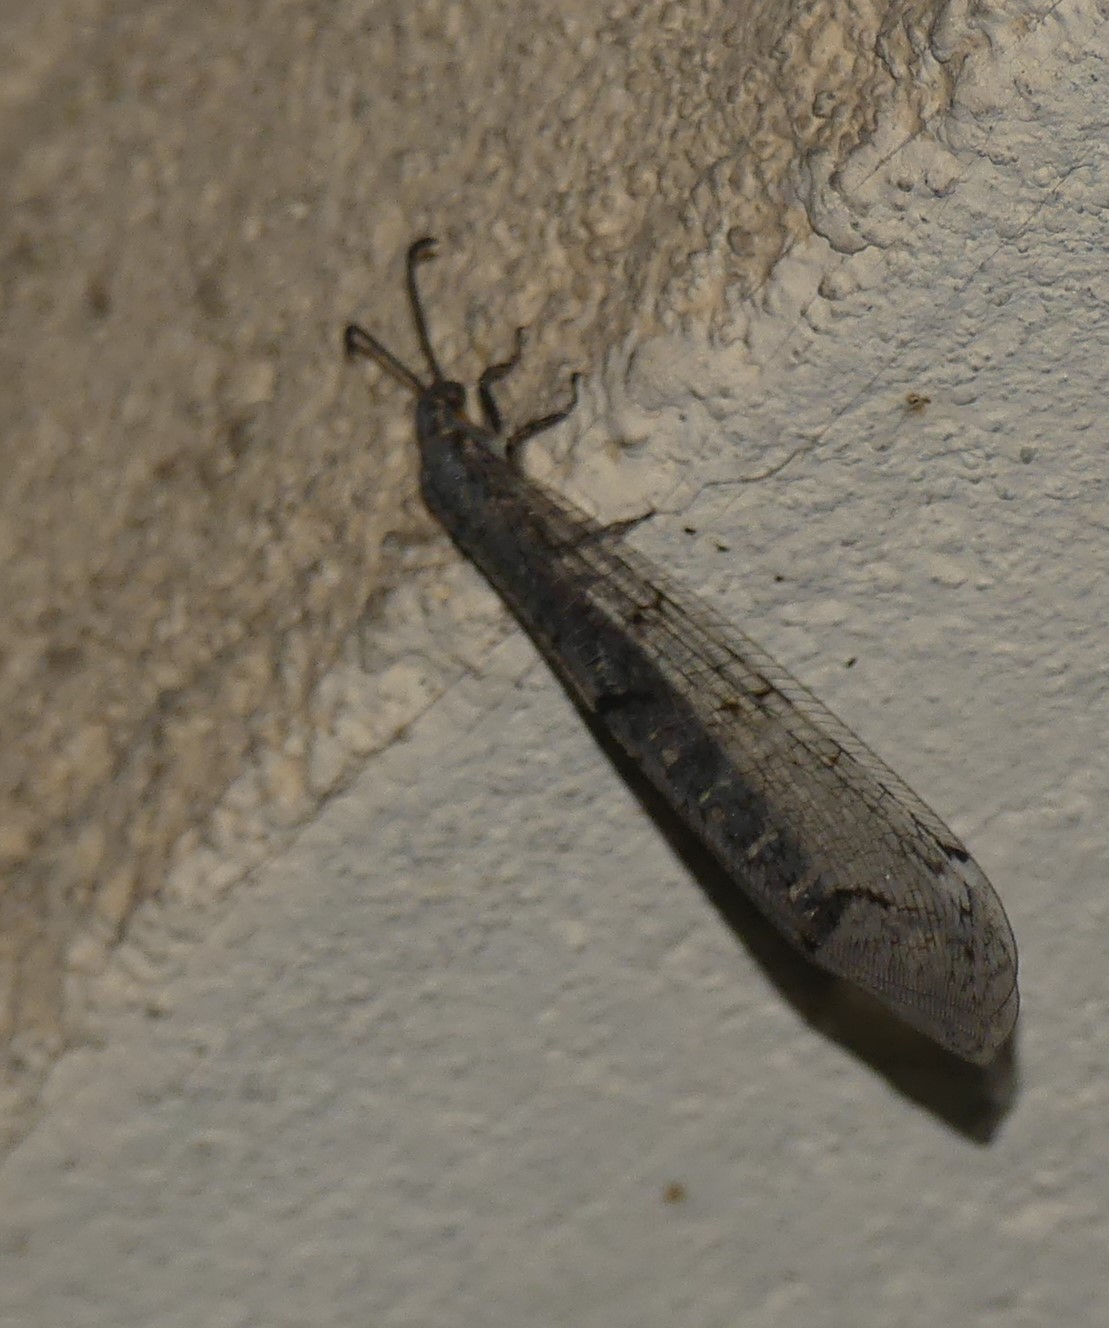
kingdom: Animalia
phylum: Arthropoda
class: Insecta
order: Neuroptera
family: Myrmeleontidae
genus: Distoleon
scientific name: Distoleon tetragrammicus
